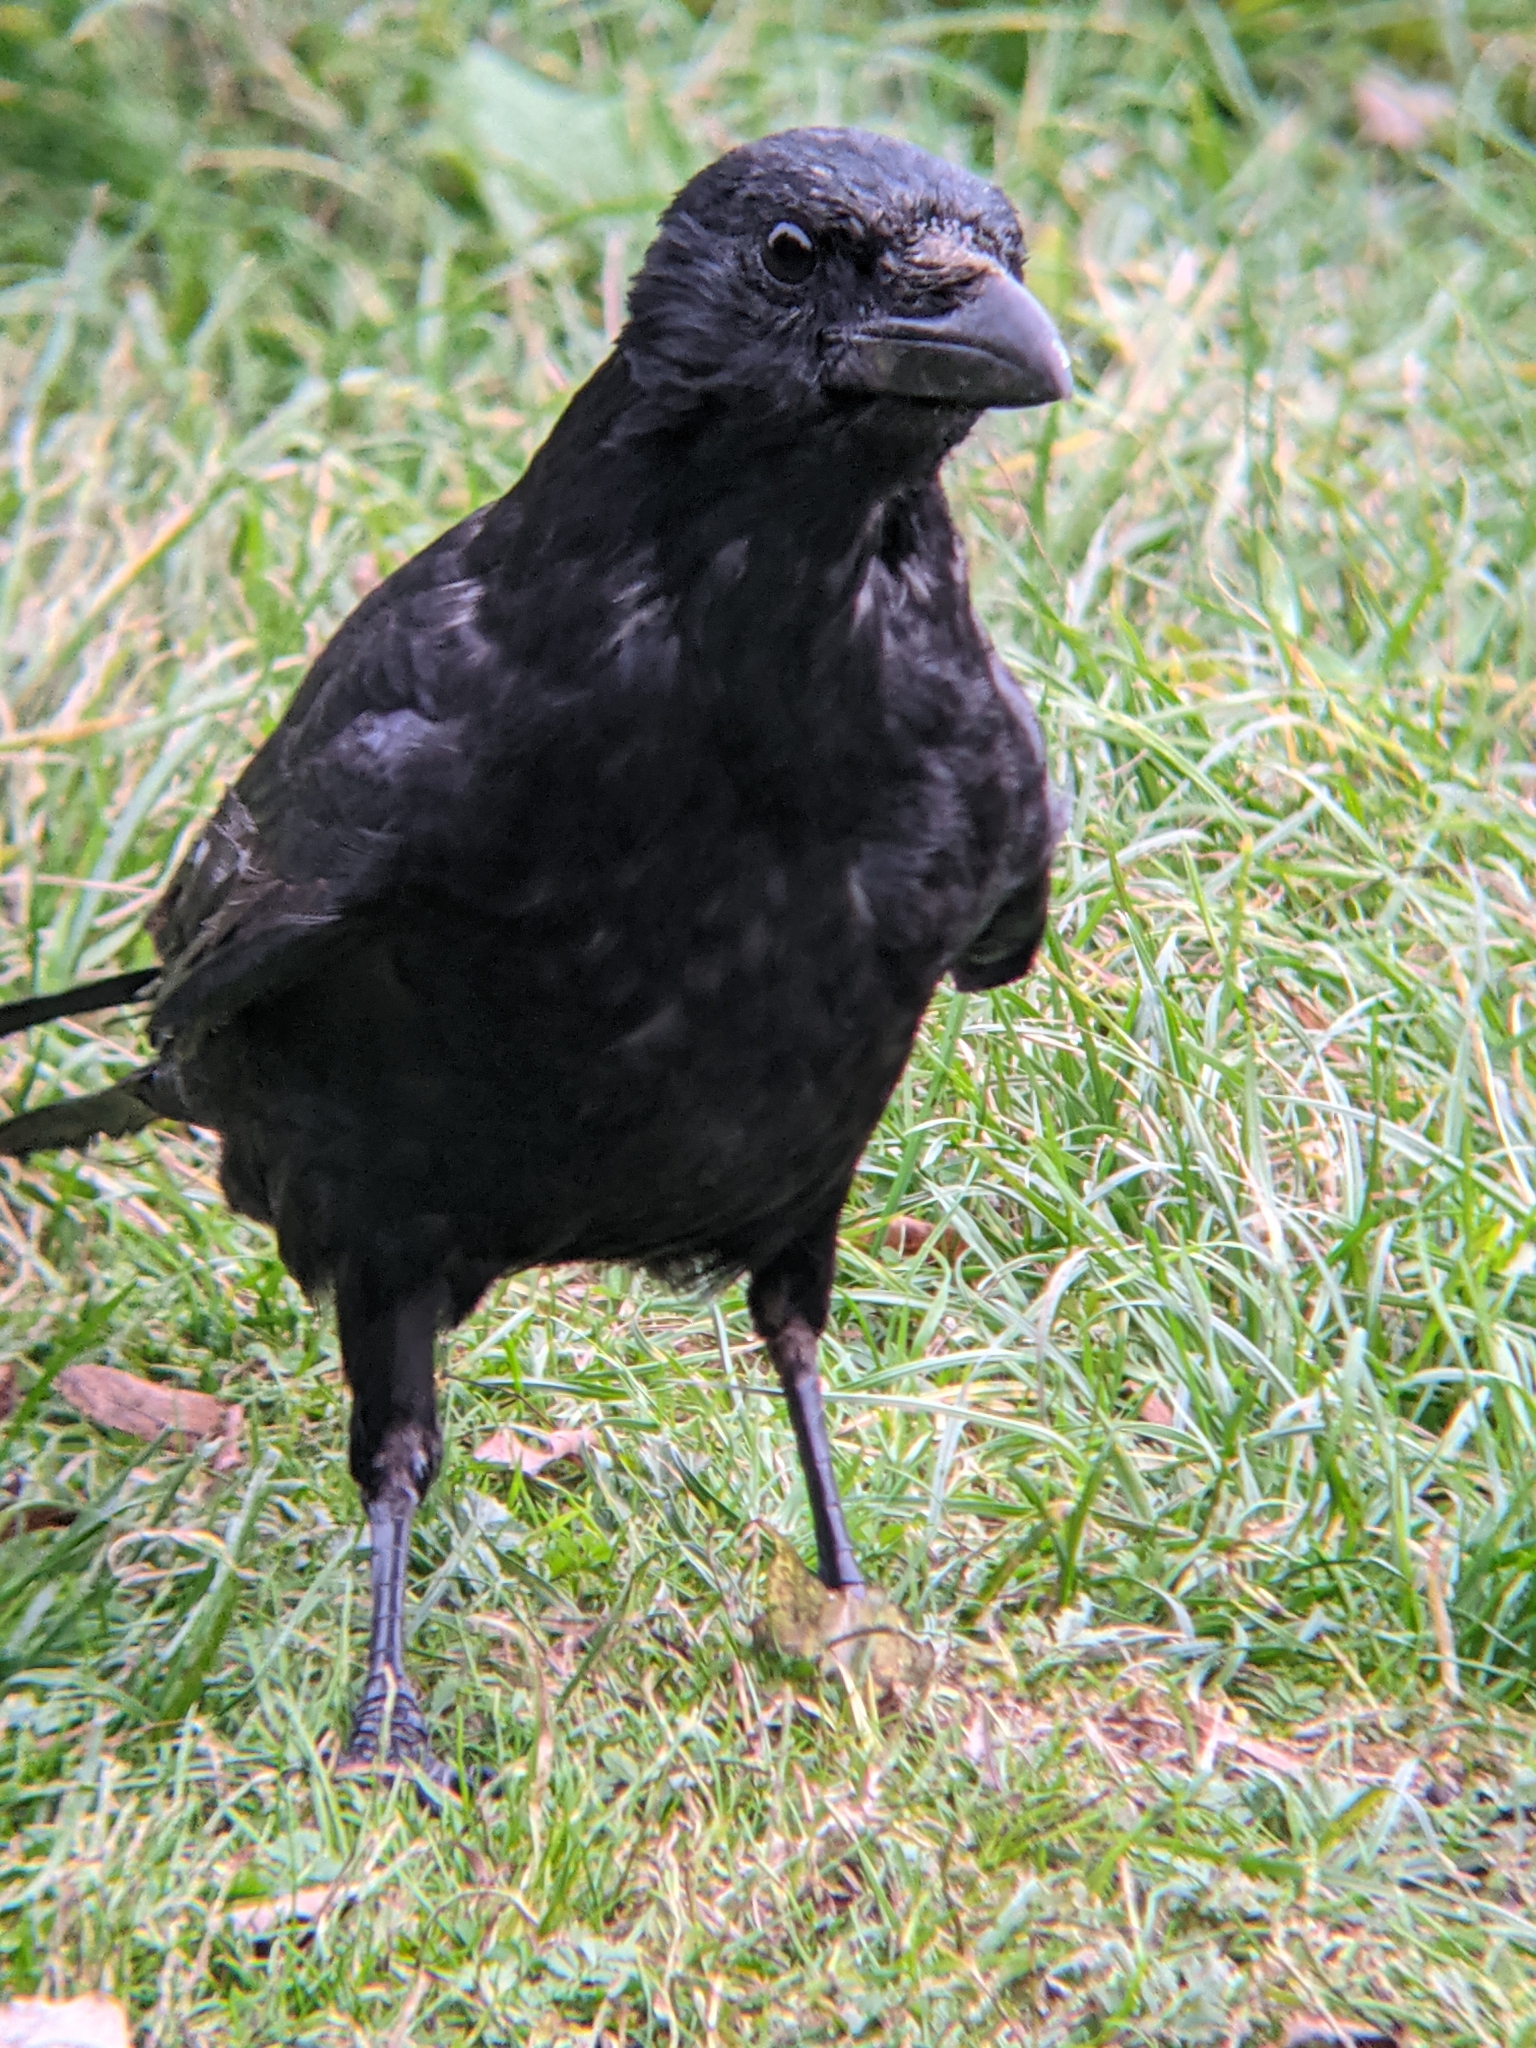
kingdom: Animalia
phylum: Chordata
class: Aves
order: Passeriformes
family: Corvidae
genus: Corvus
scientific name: Corvus corone
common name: Carrion crow
